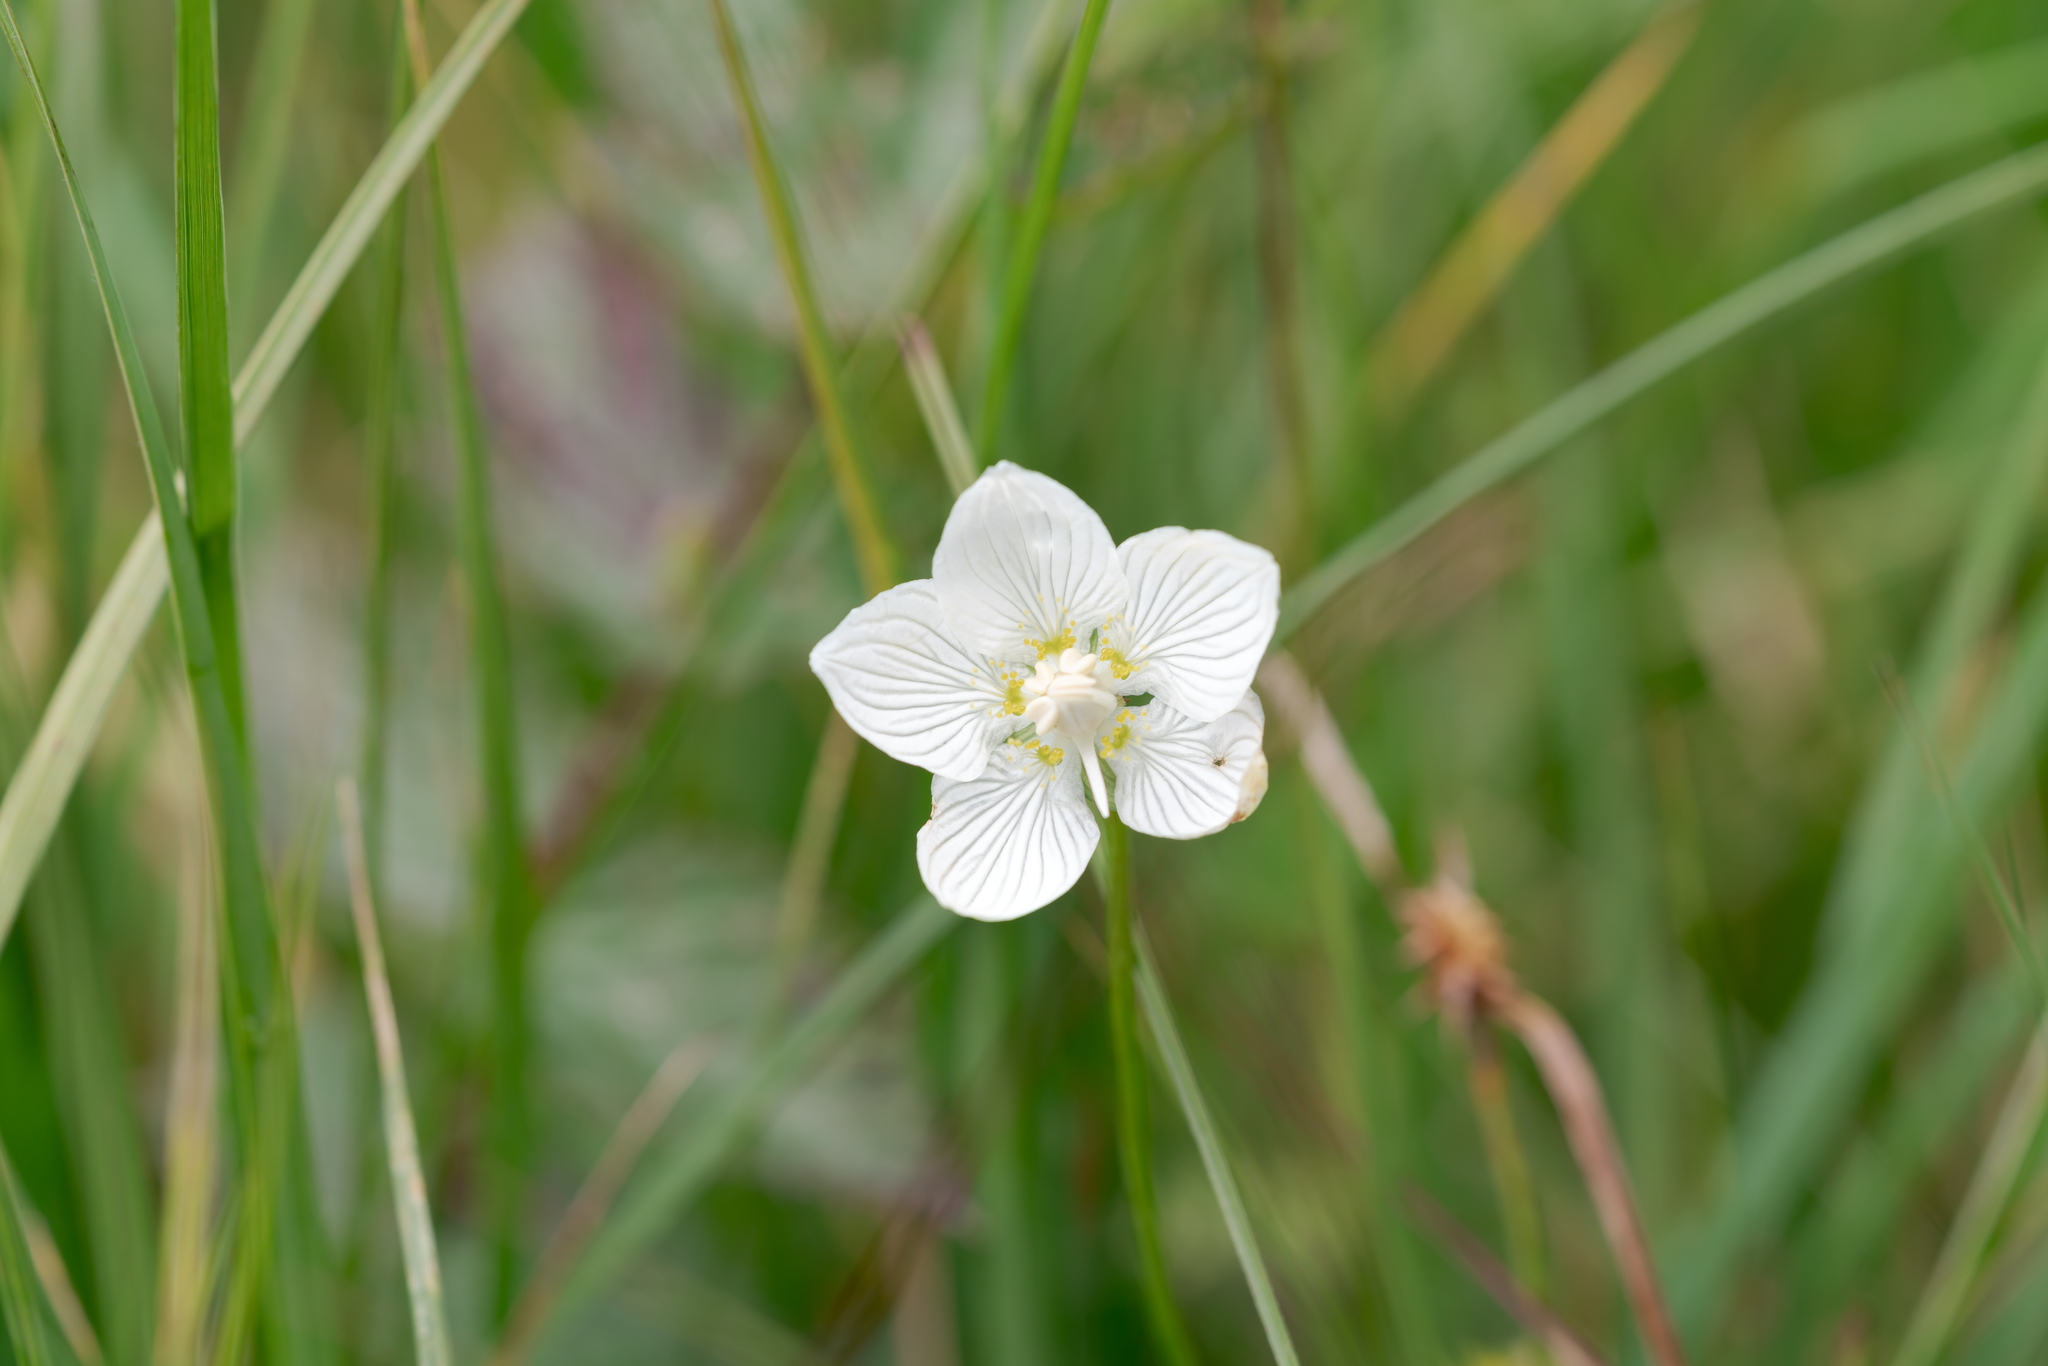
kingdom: Plantae
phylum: Tracheophyta
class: Magnoliopsida
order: Celastrales
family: Parnassiaceae
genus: Parnassia
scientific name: Parnassia palustris
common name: Grass-of-parnassus
